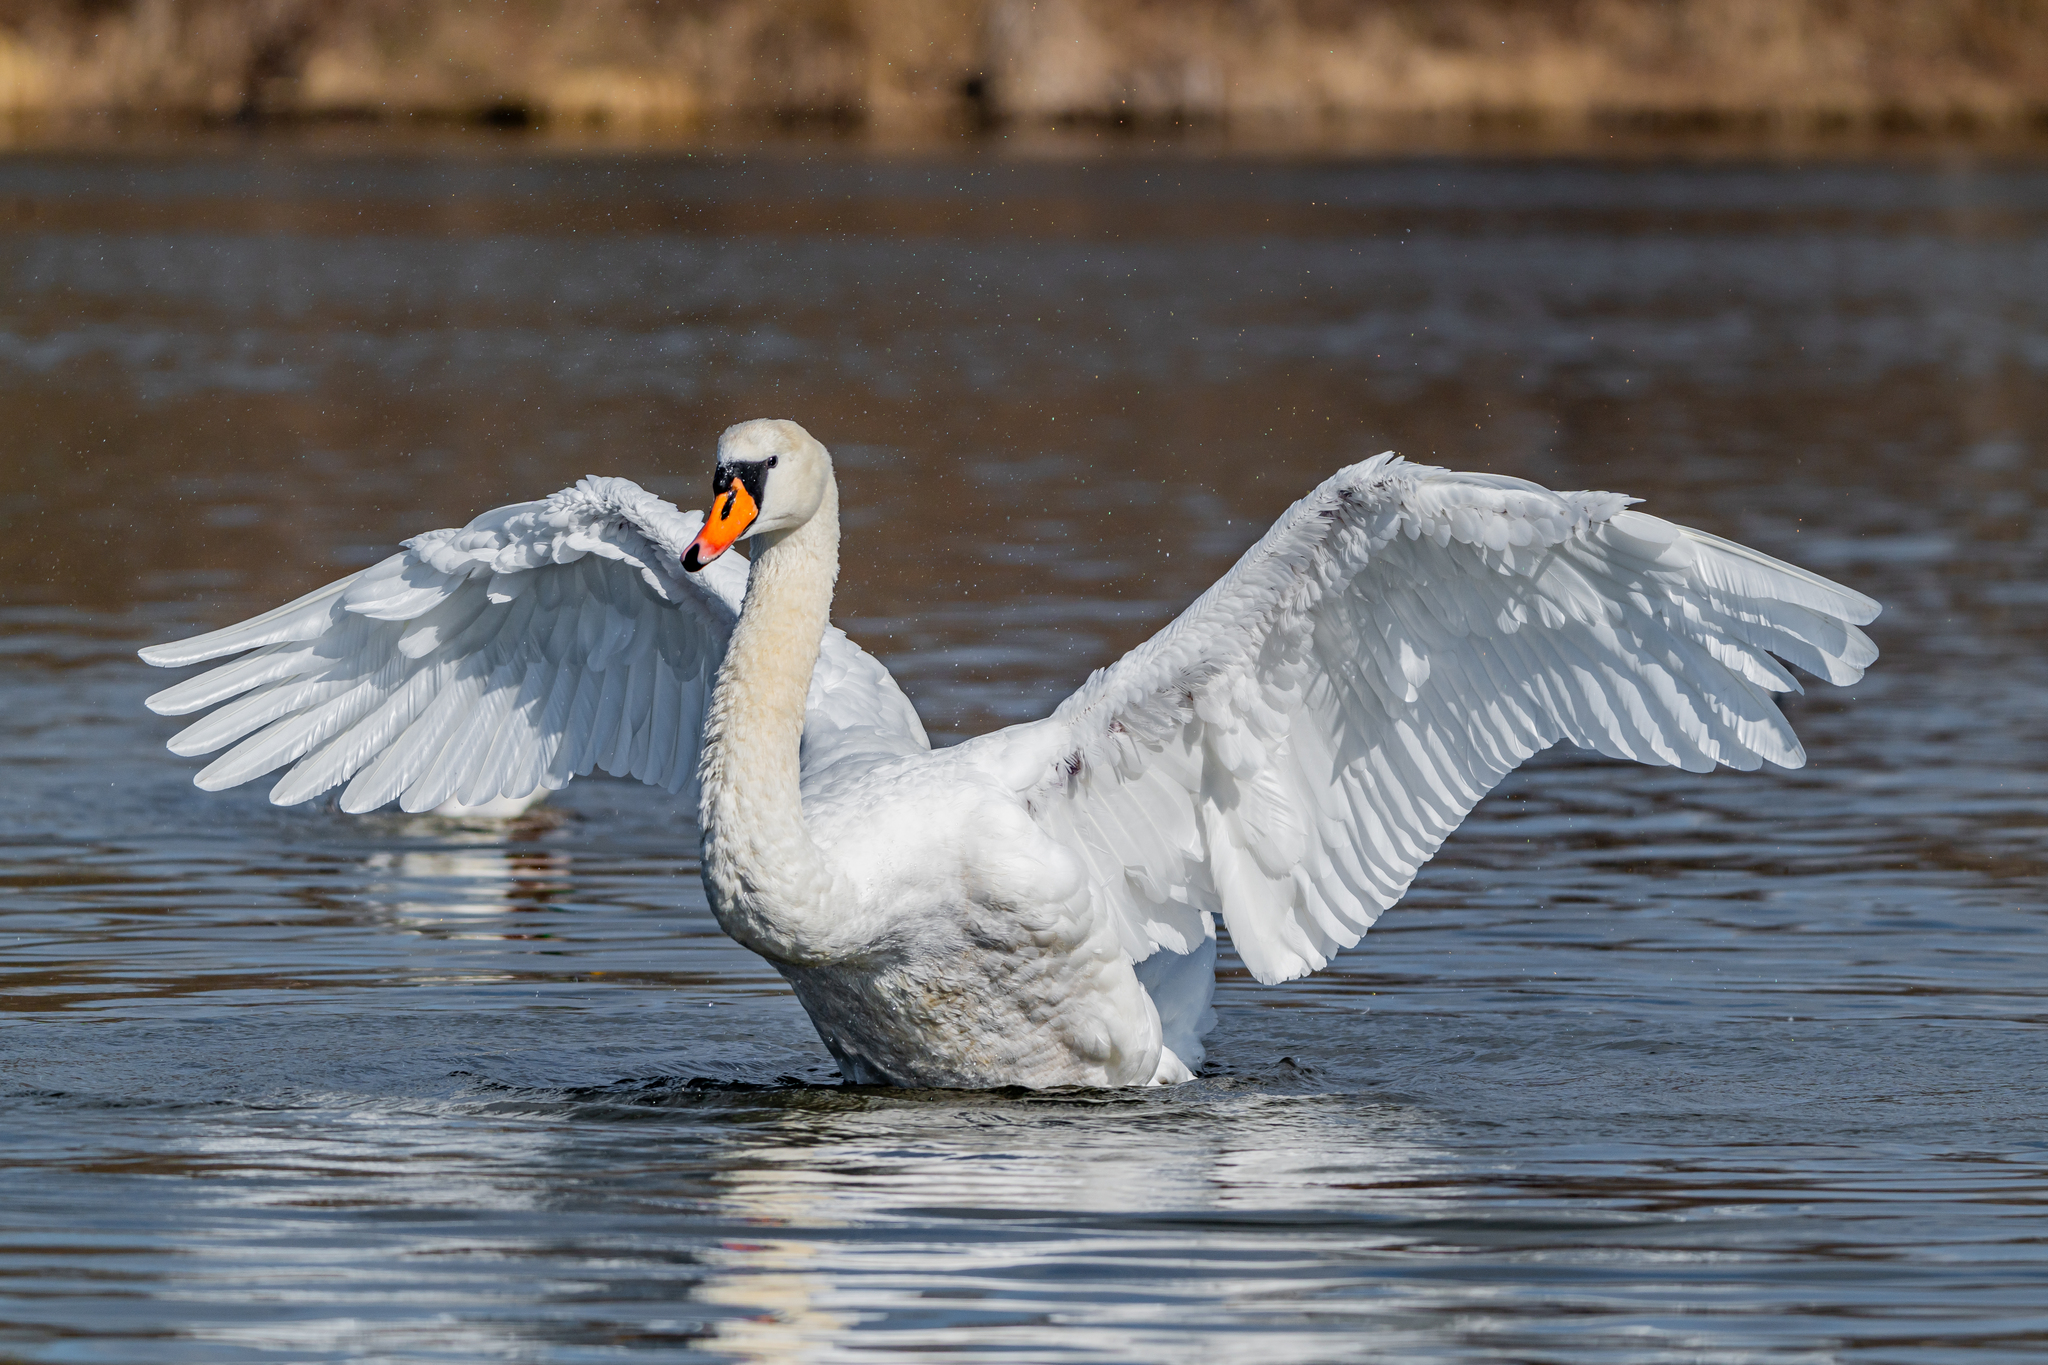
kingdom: Animalia
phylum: Chordata
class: Aves
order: Anseriformes
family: Anatidae
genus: Cygnus
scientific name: Cygnus olor
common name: Mute swan
